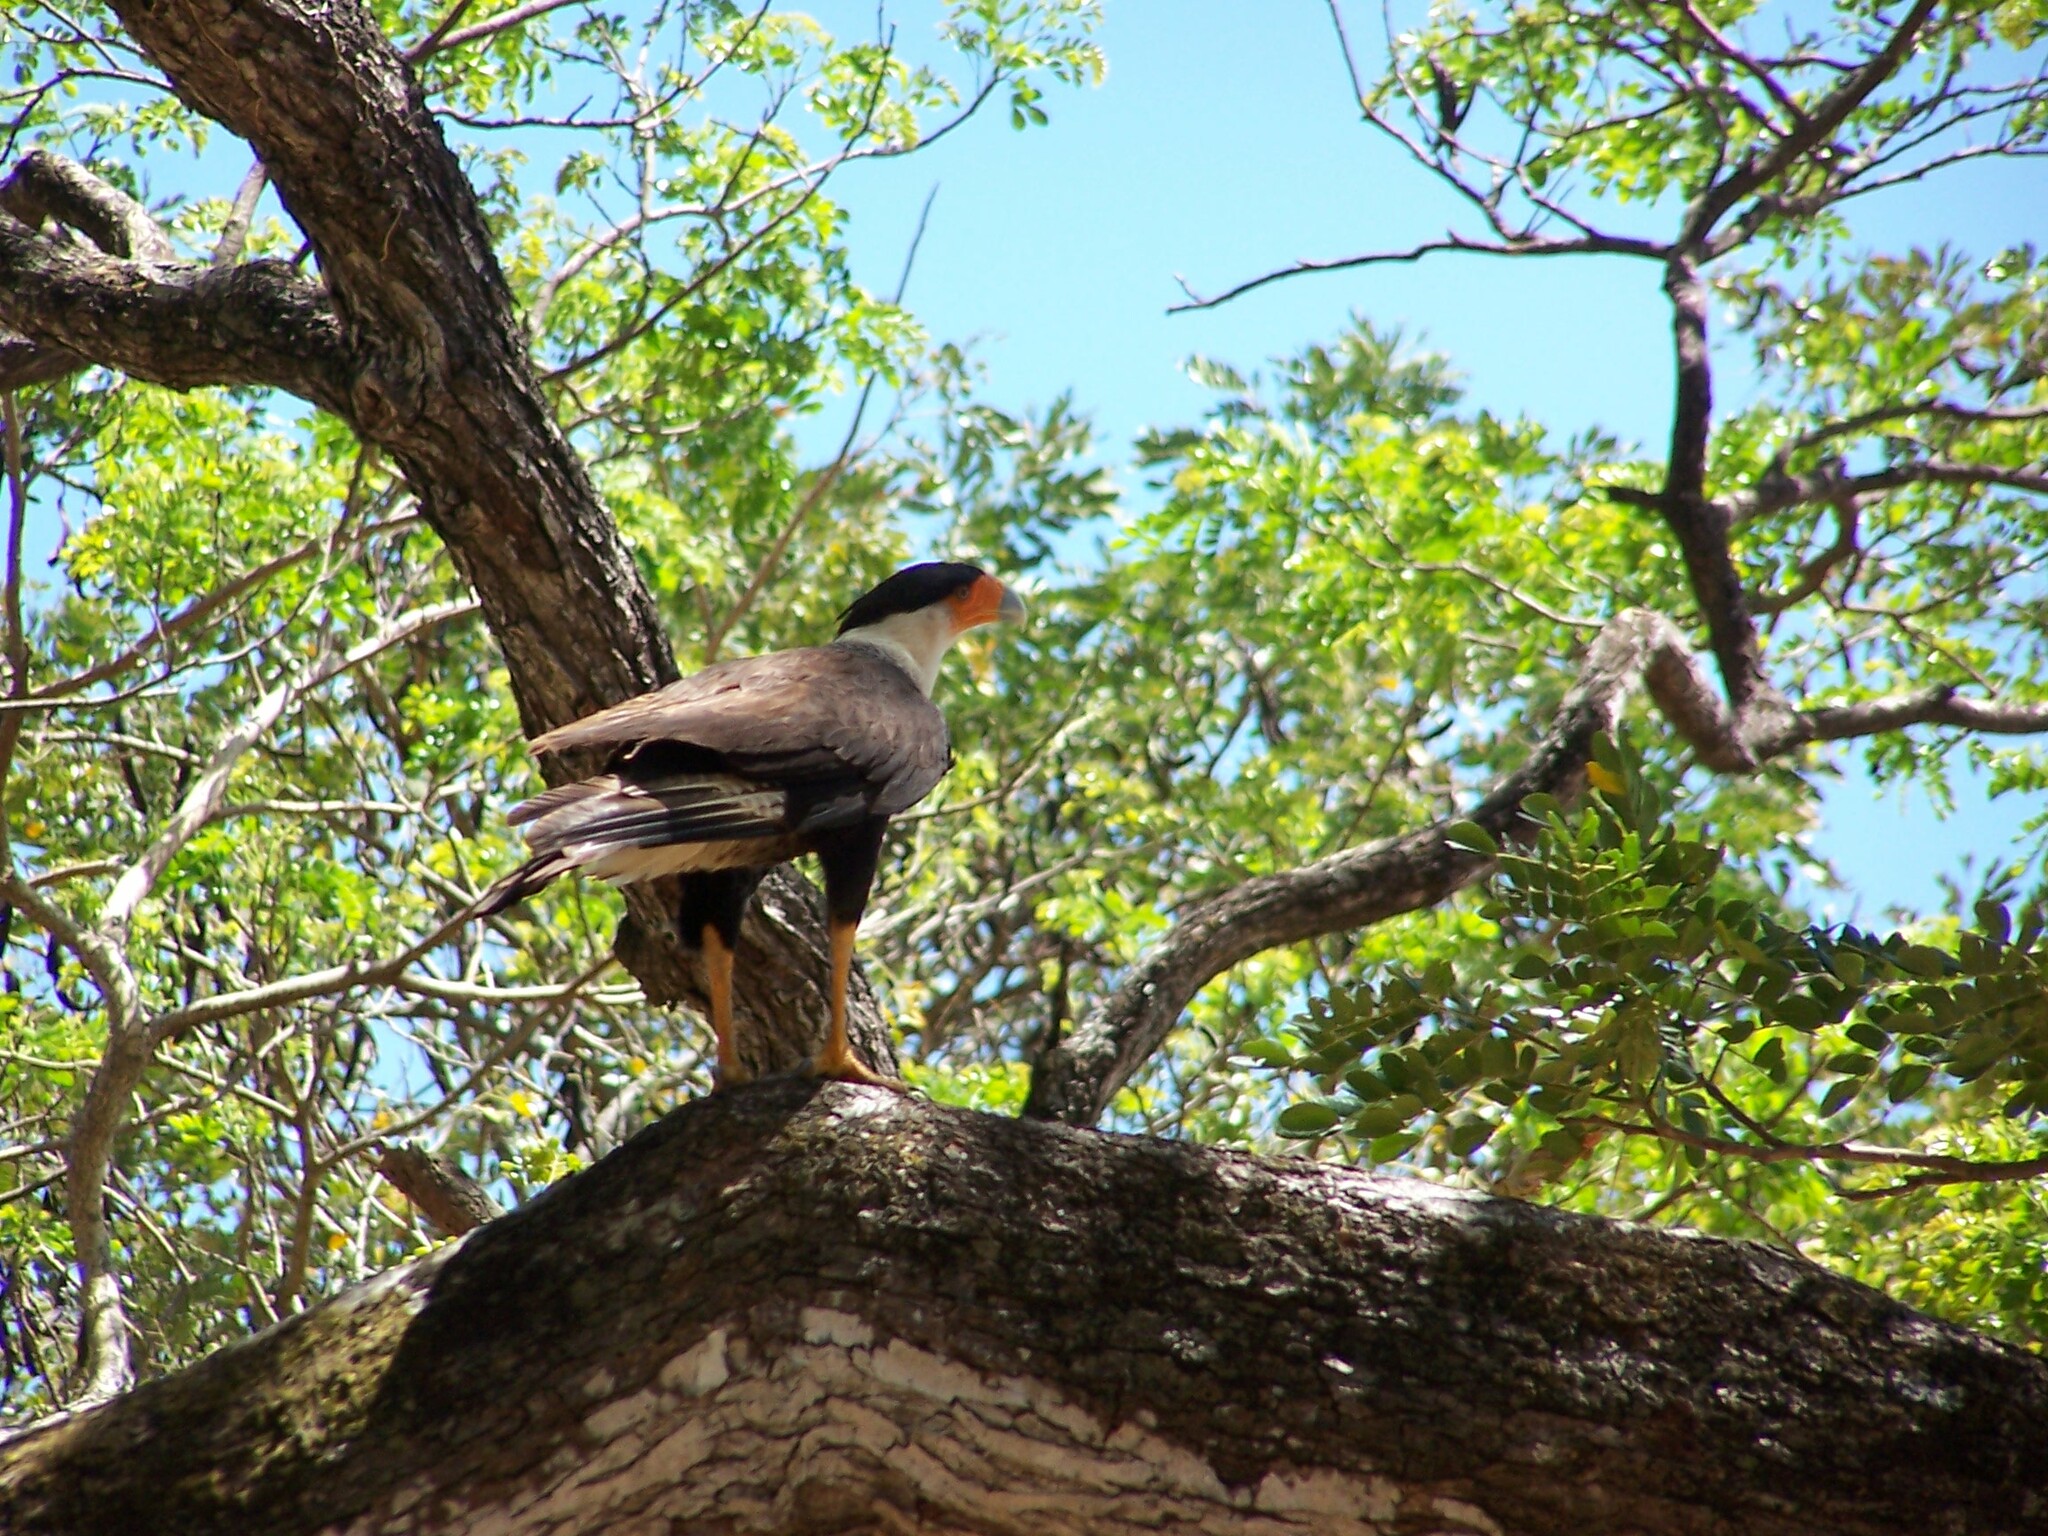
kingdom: Animalia
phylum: Chordata
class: Aves
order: Falconiformes
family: Falconidae
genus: Caracara
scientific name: Caracara plancus
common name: Southern caracara
